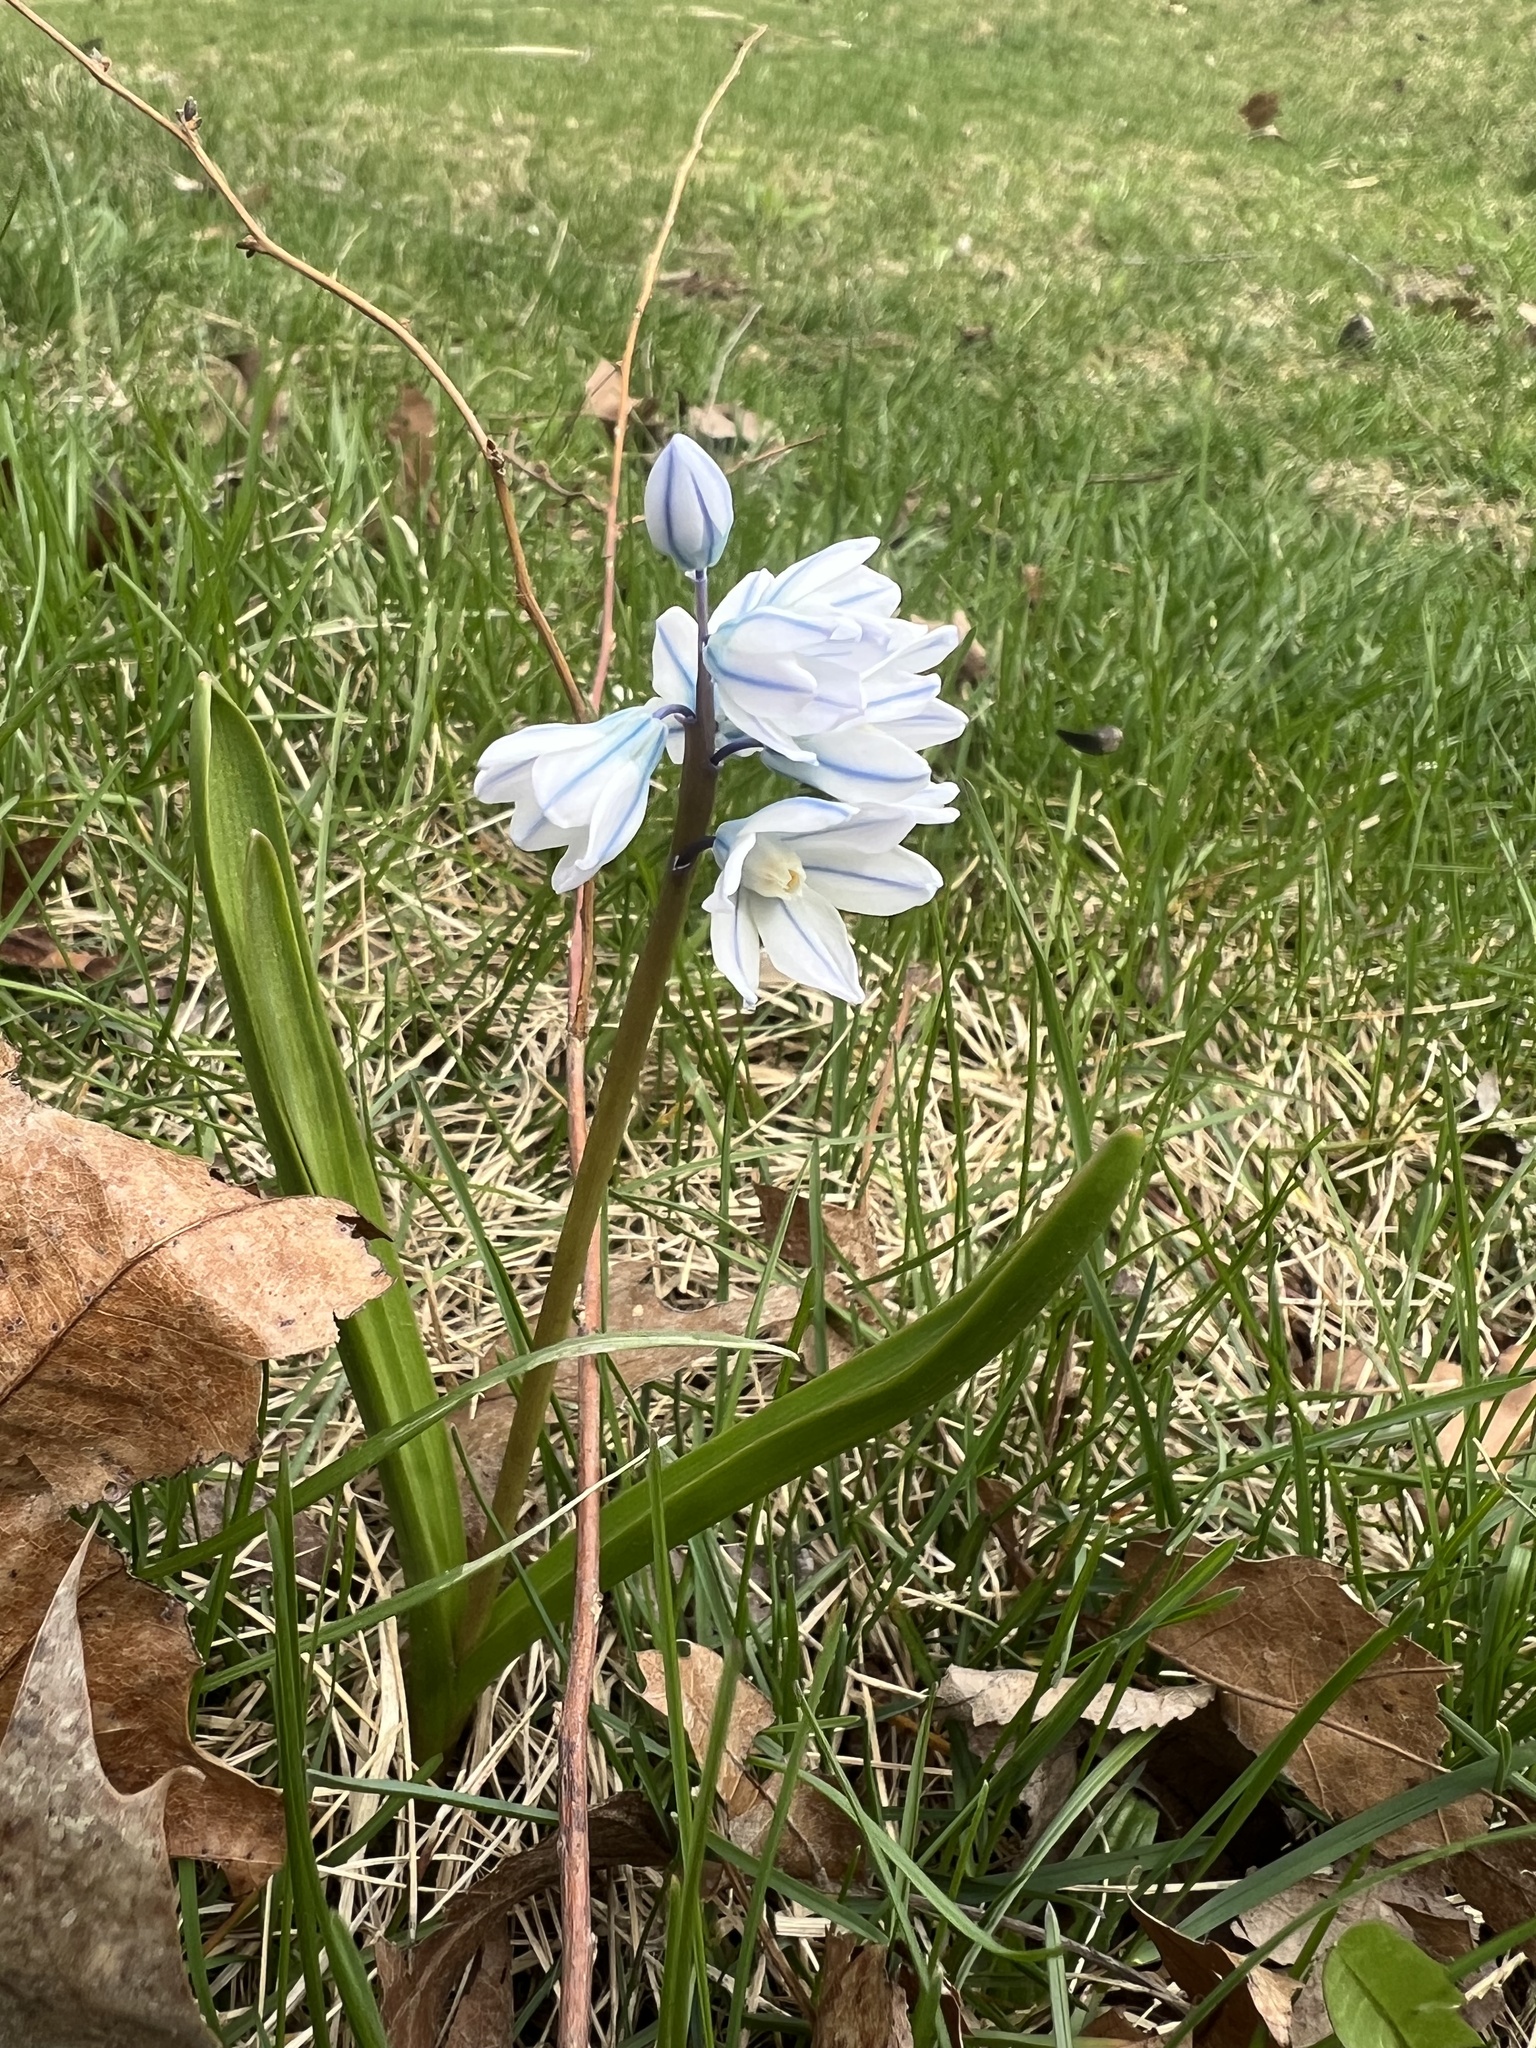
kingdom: Plantae
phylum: Tracheophyta
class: Liliopsida
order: Asparagales
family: Asparagaceae
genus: Puschkinia
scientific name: Puschkinia scilloides
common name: Striped squill
